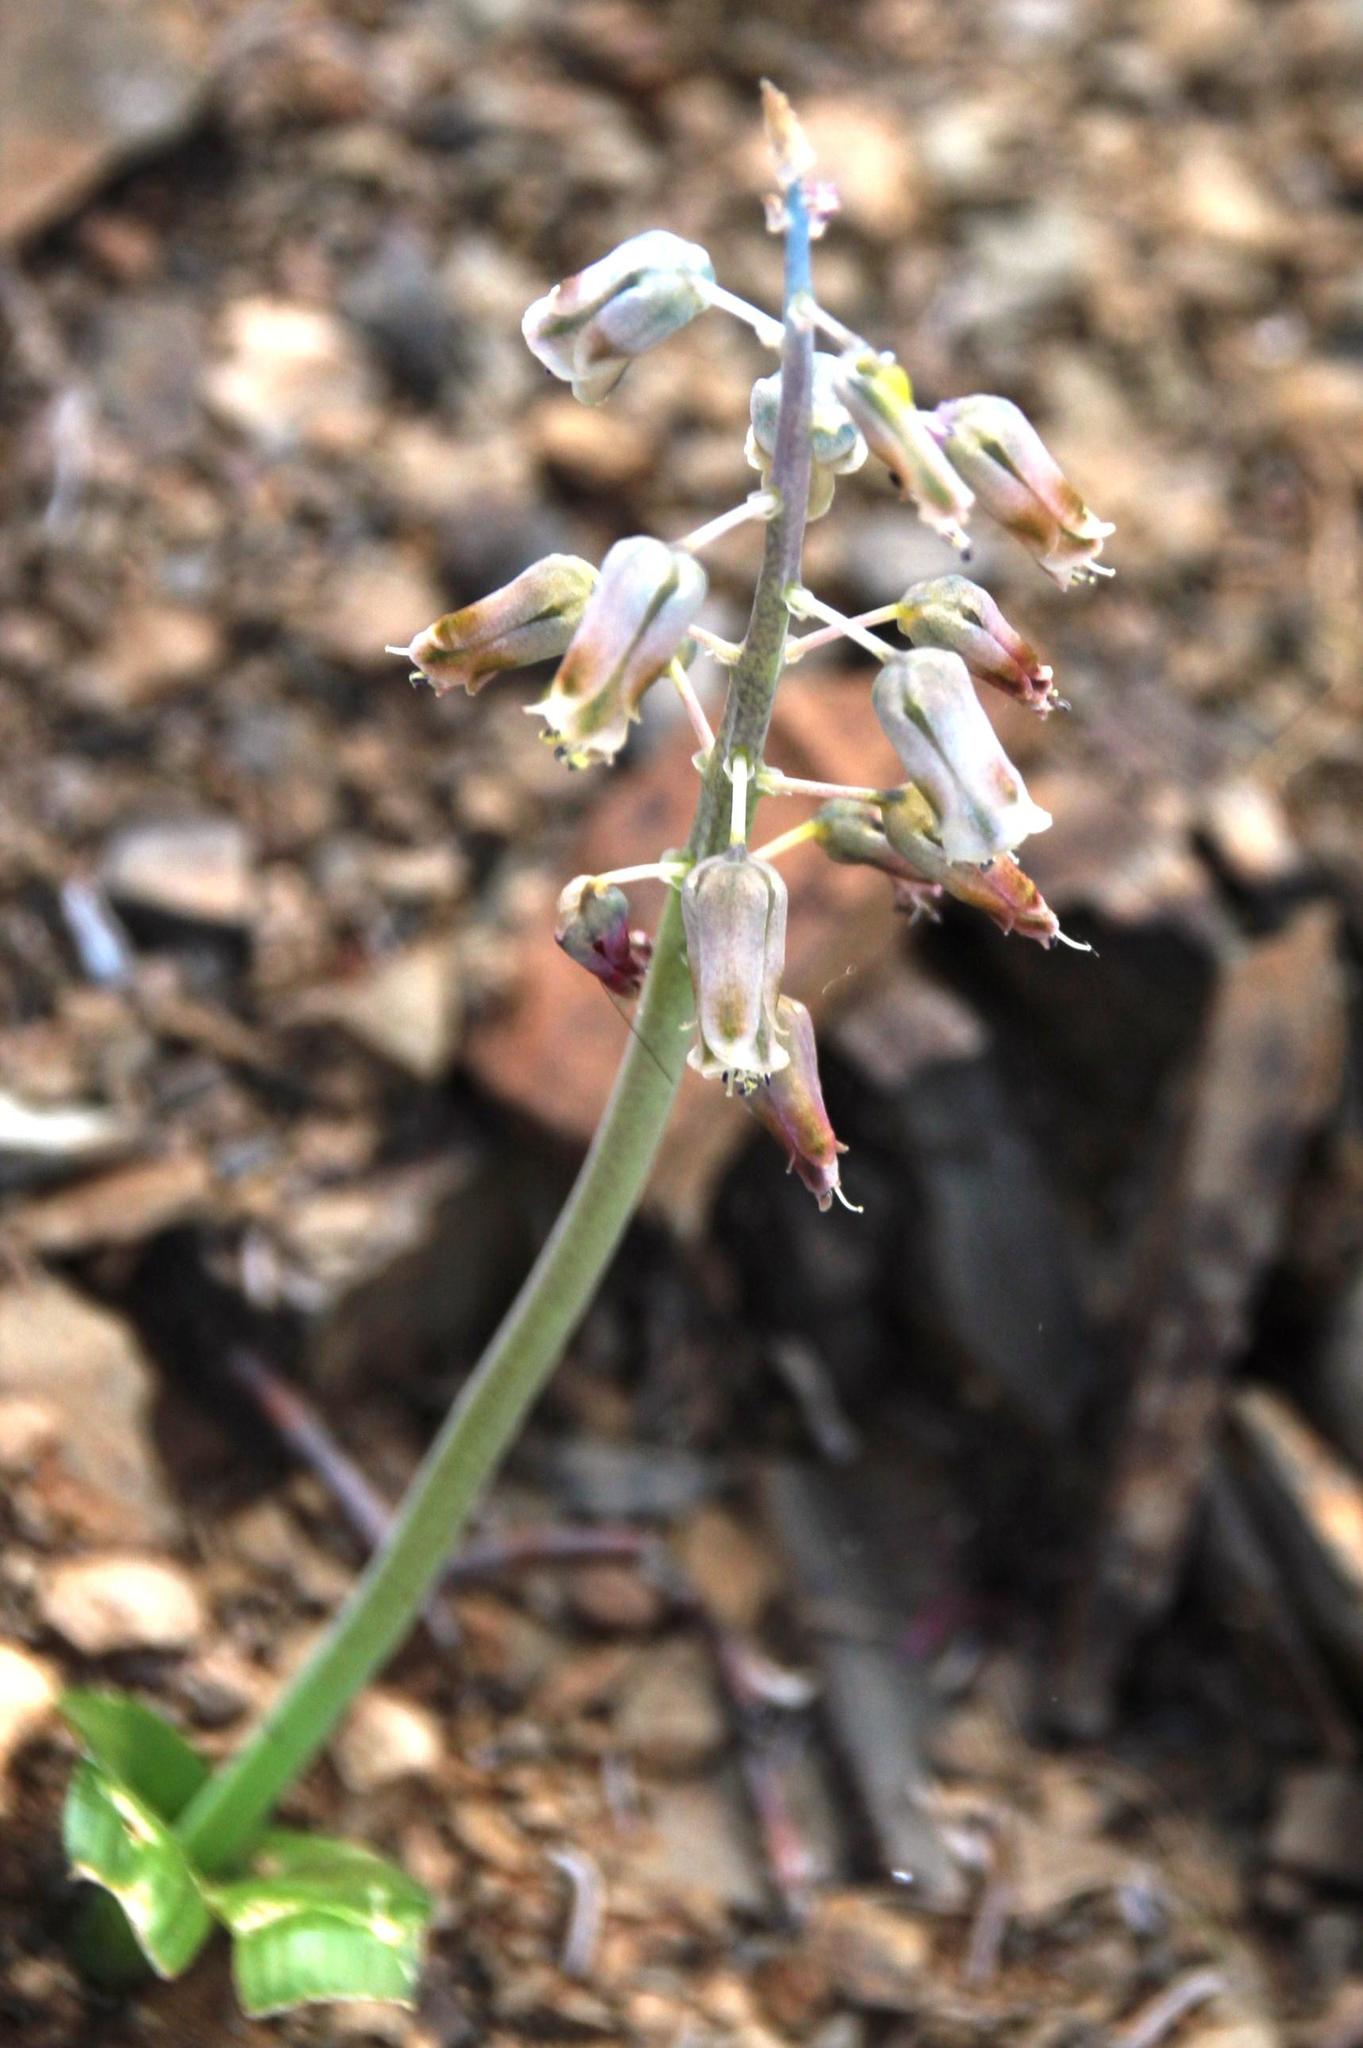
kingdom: Plantae
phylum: Tracheophyta
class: Liliopsida
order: Asparagales
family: Asparagaceae
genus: Lachenalia
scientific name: Lachenalia bolusii
